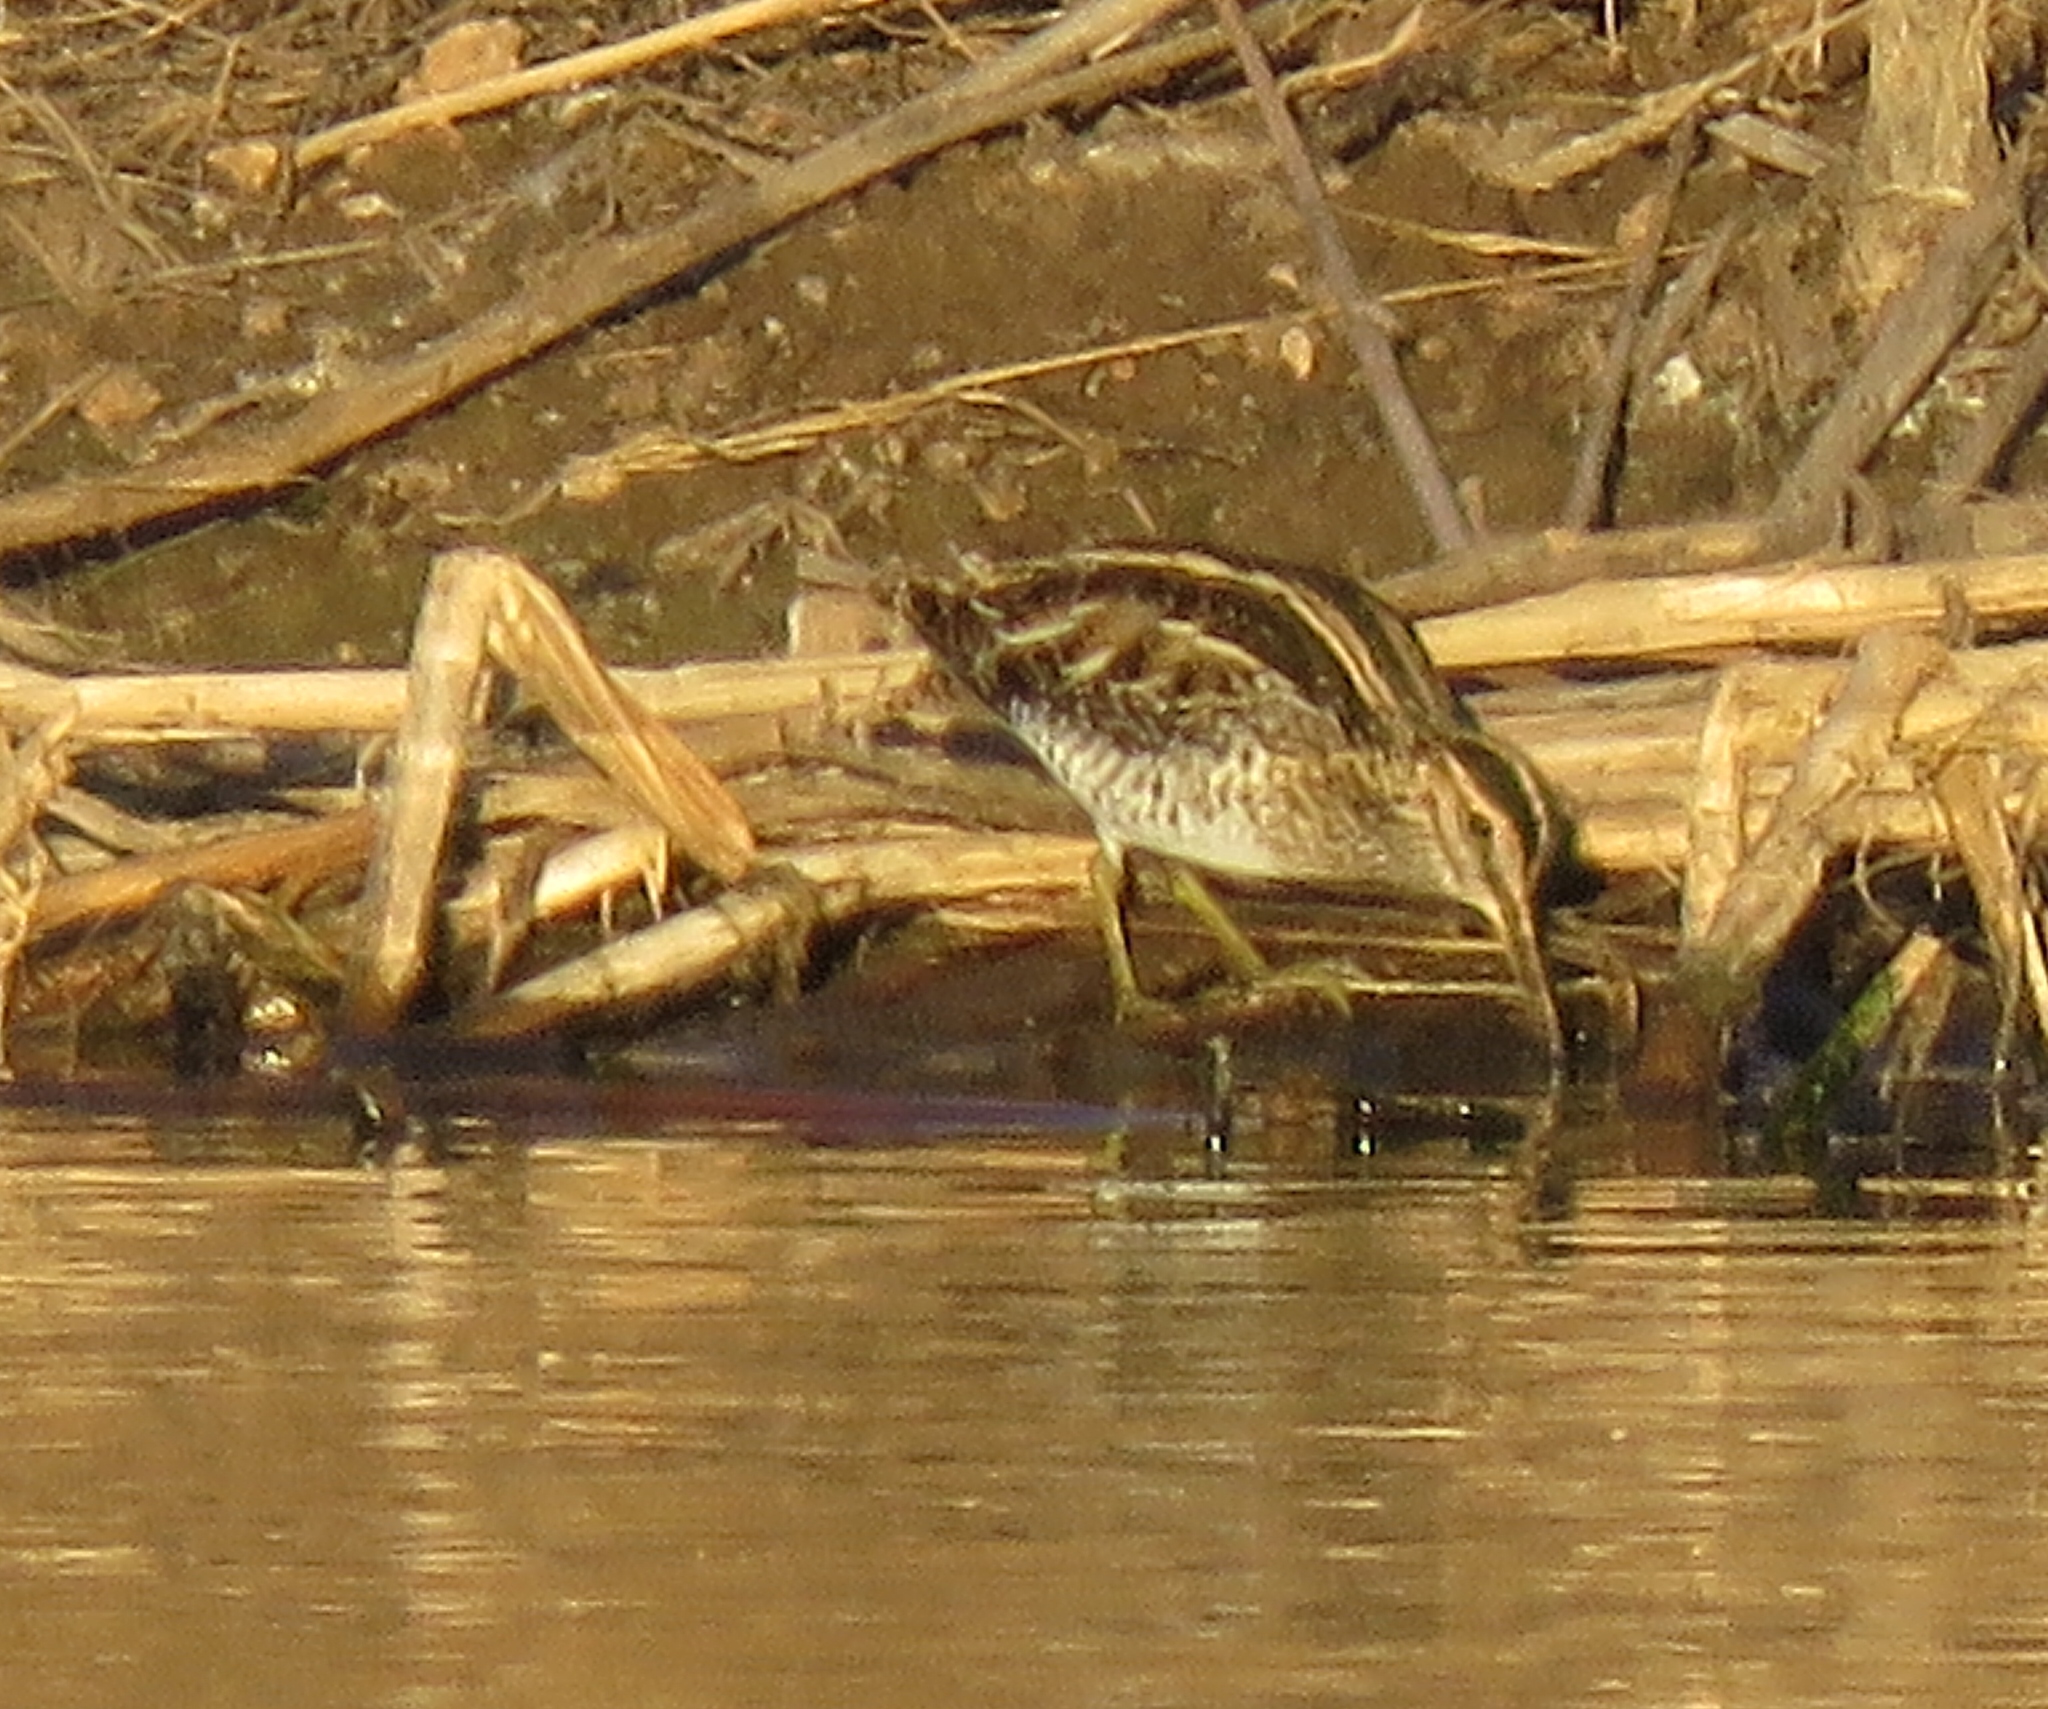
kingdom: Animalia
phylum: Chordata
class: Aves
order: Charadriiformes
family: Scolopacidae
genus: Gallinago
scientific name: Gallinago delicata
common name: Wilson's snipe
